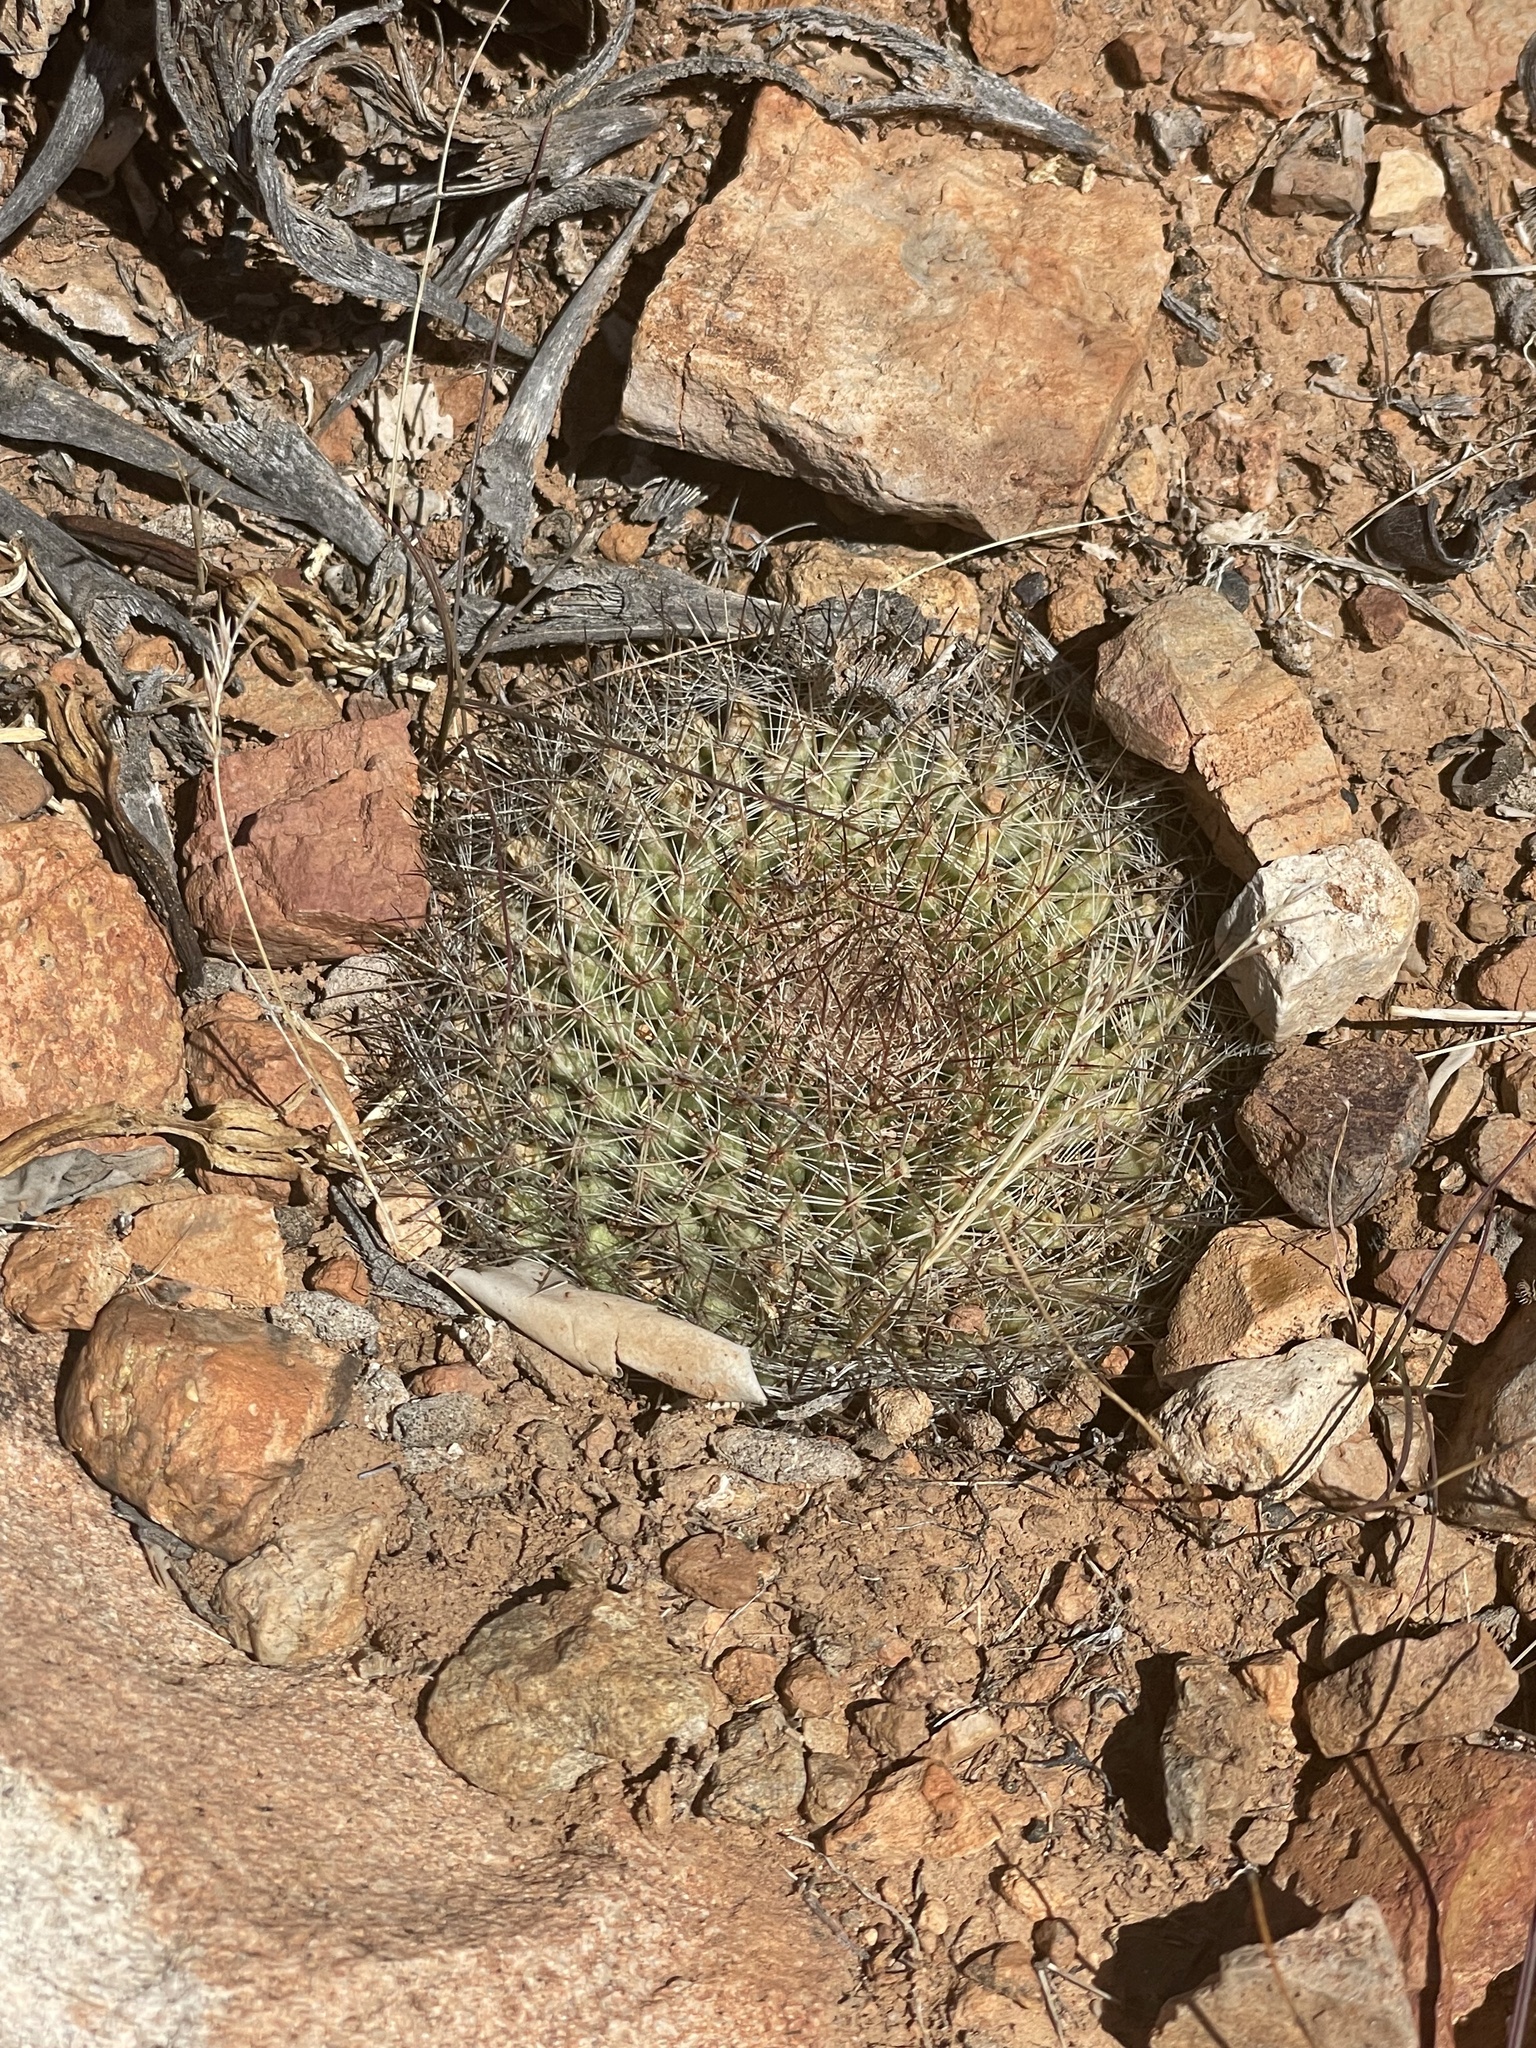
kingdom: Plantae
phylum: Tracheophyta
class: Magnoliopsida
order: Caryophyllales
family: Cactaceae
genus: Mammillaria
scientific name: Mammillaria brandegeei
